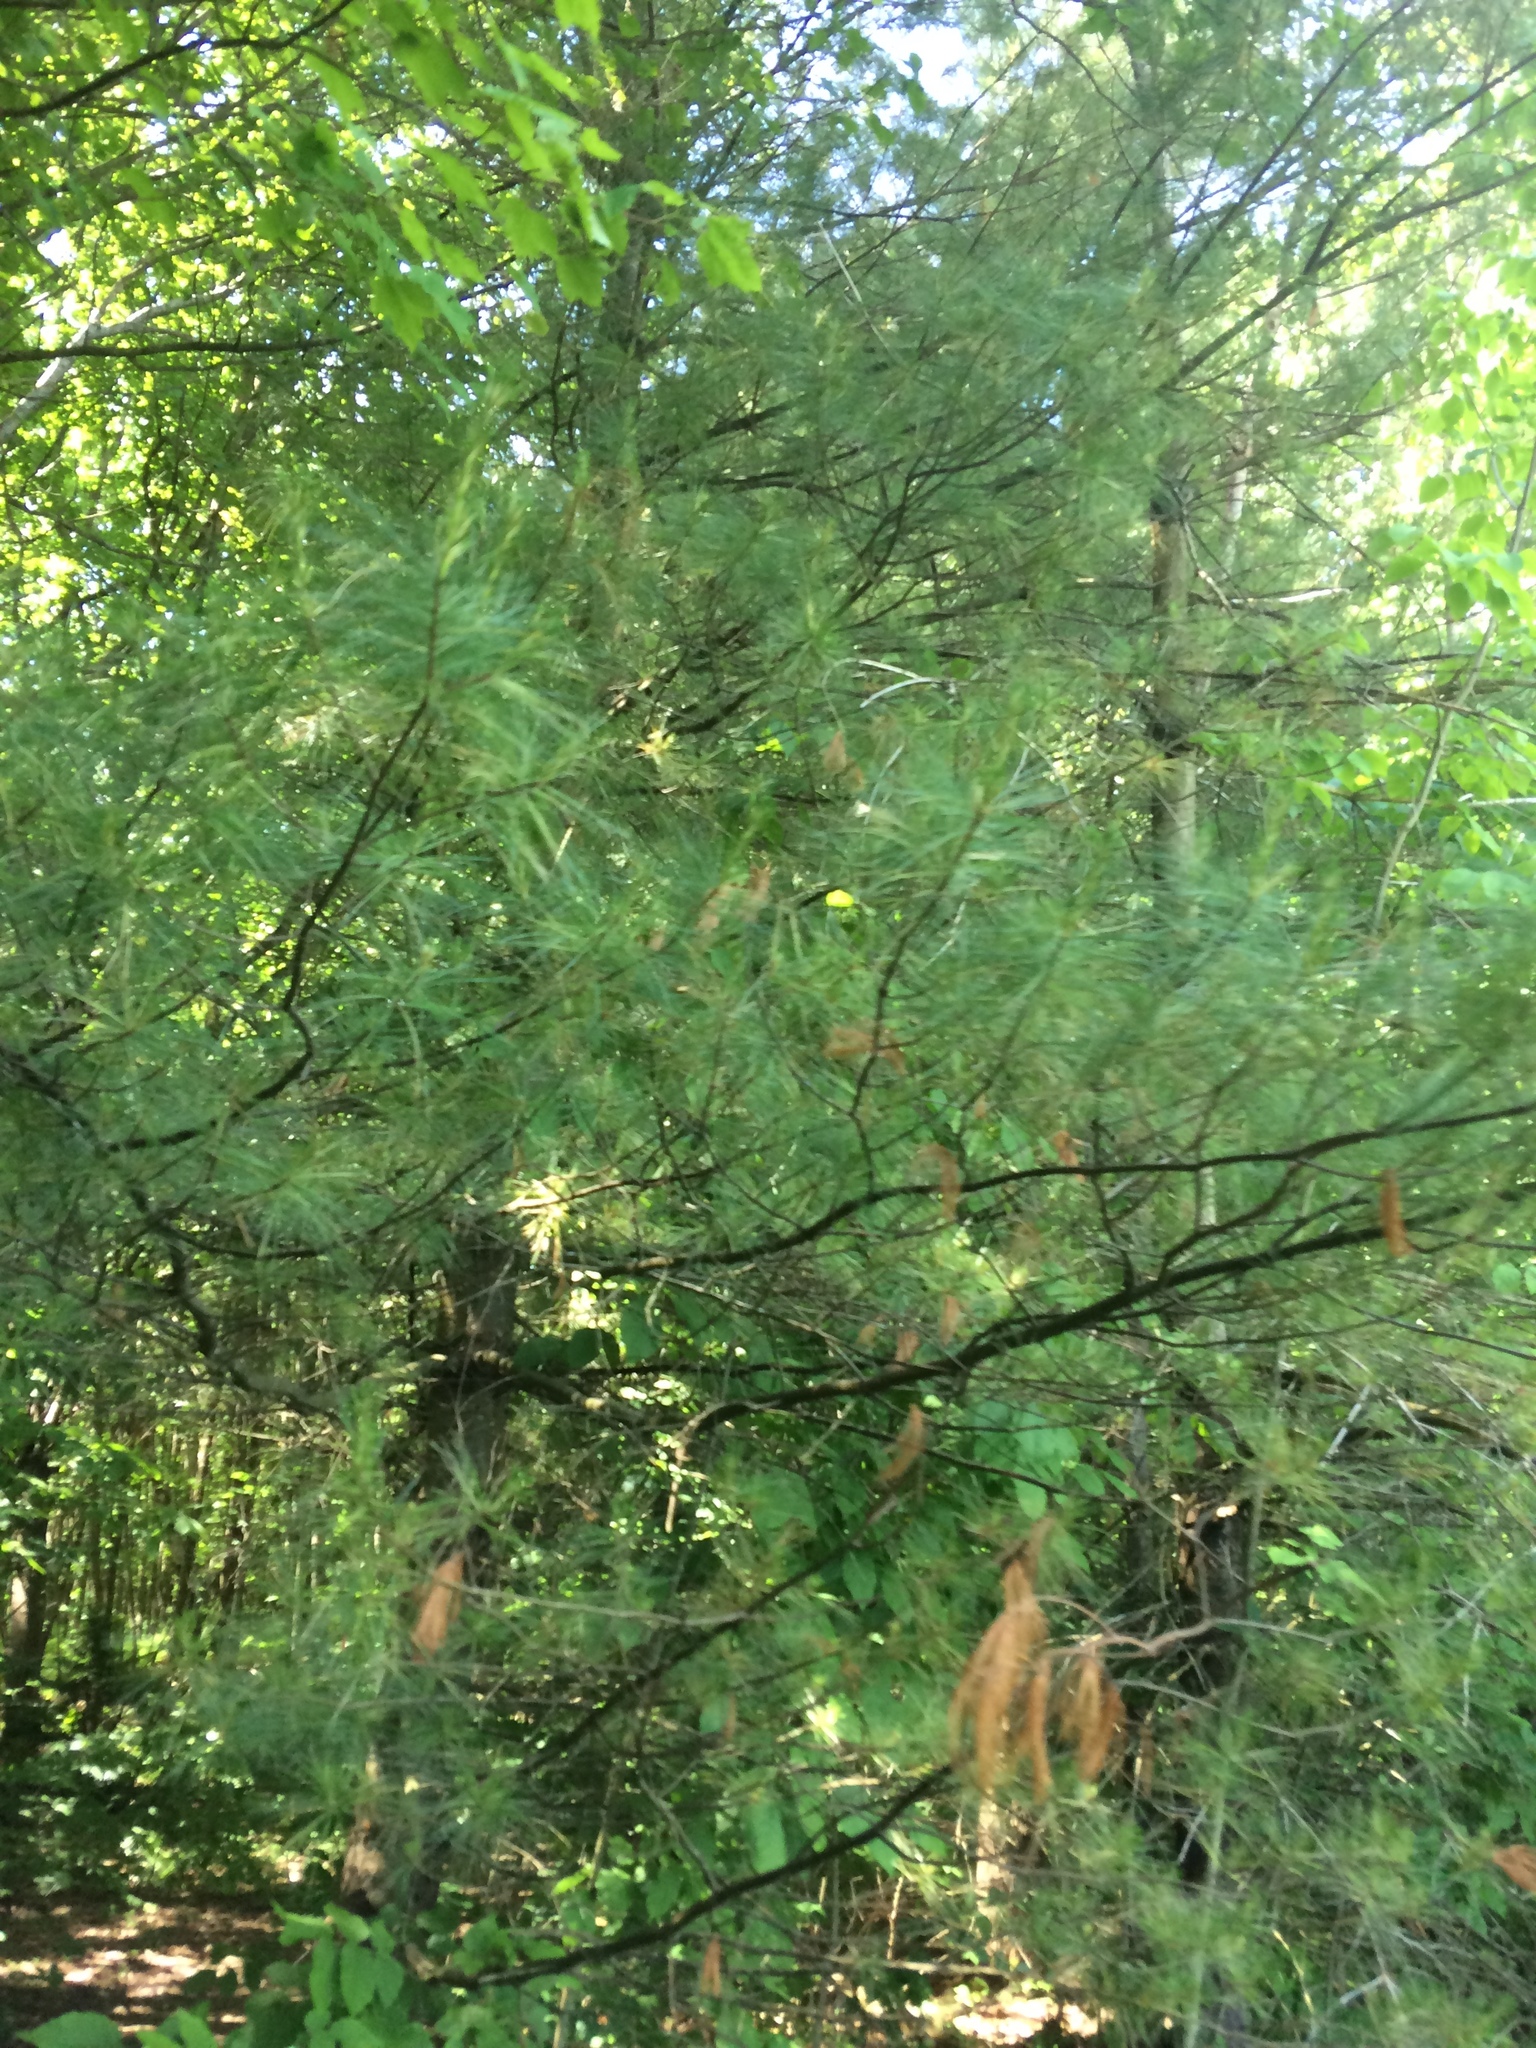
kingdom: Plantae
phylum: Tracheophyta
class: Pinopsida
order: Pinales
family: Pinaceae
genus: Pinus
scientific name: Pinus strobus
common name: Weymouth pine
